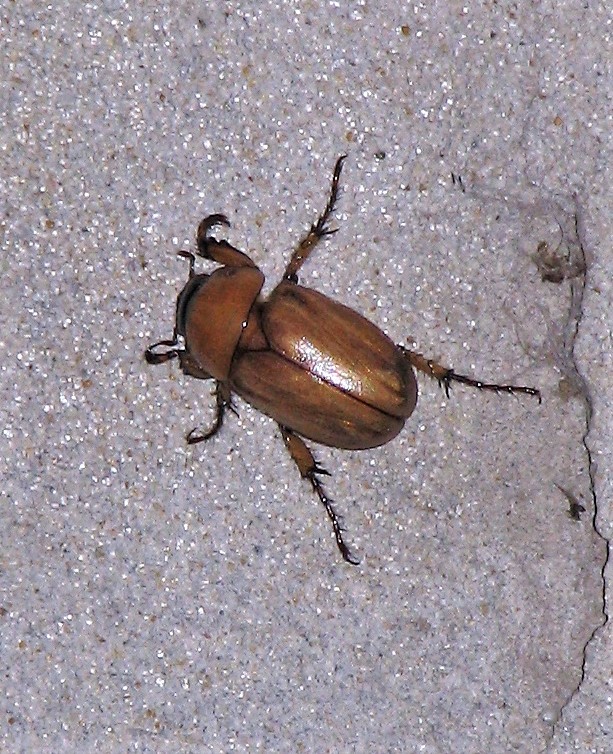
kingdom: Animalia
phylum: Arthropoda
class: Insecta
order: Coleoptera
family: Scarabaeidae
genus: Cyclocephala
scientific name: Cyclocephala putrida
